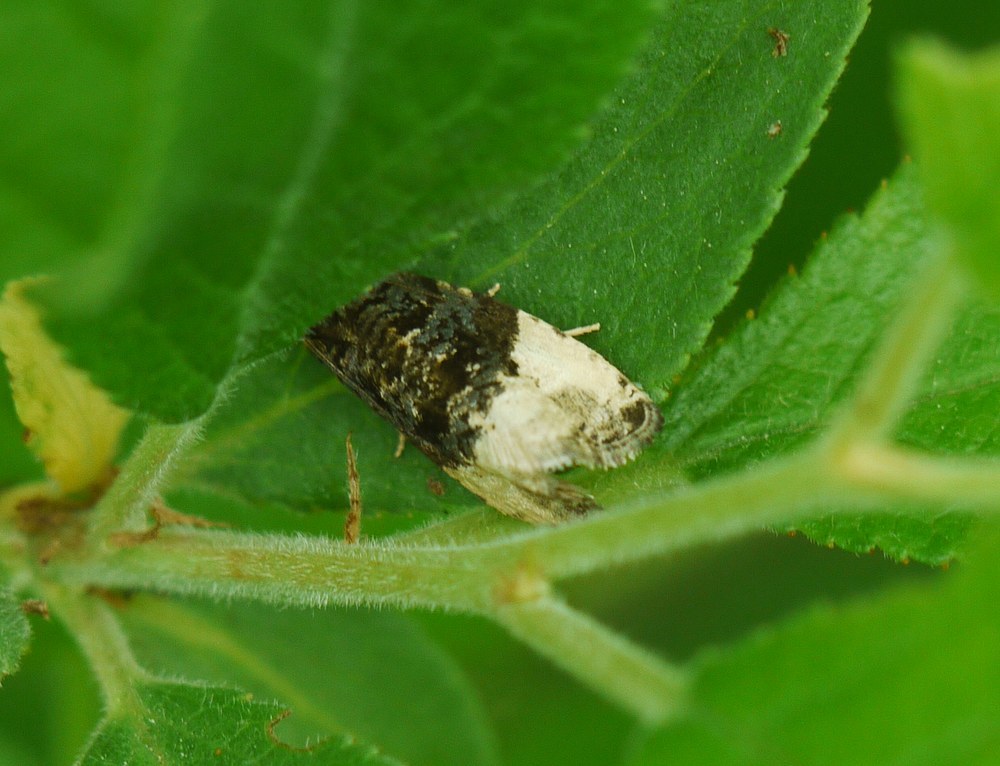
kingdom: Animalia
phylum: Arthropoda
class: Insecta
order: Lepidoptera
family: Tortricidae
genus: Hedya
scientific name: Hedya pruniana
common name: Plum tortrix
